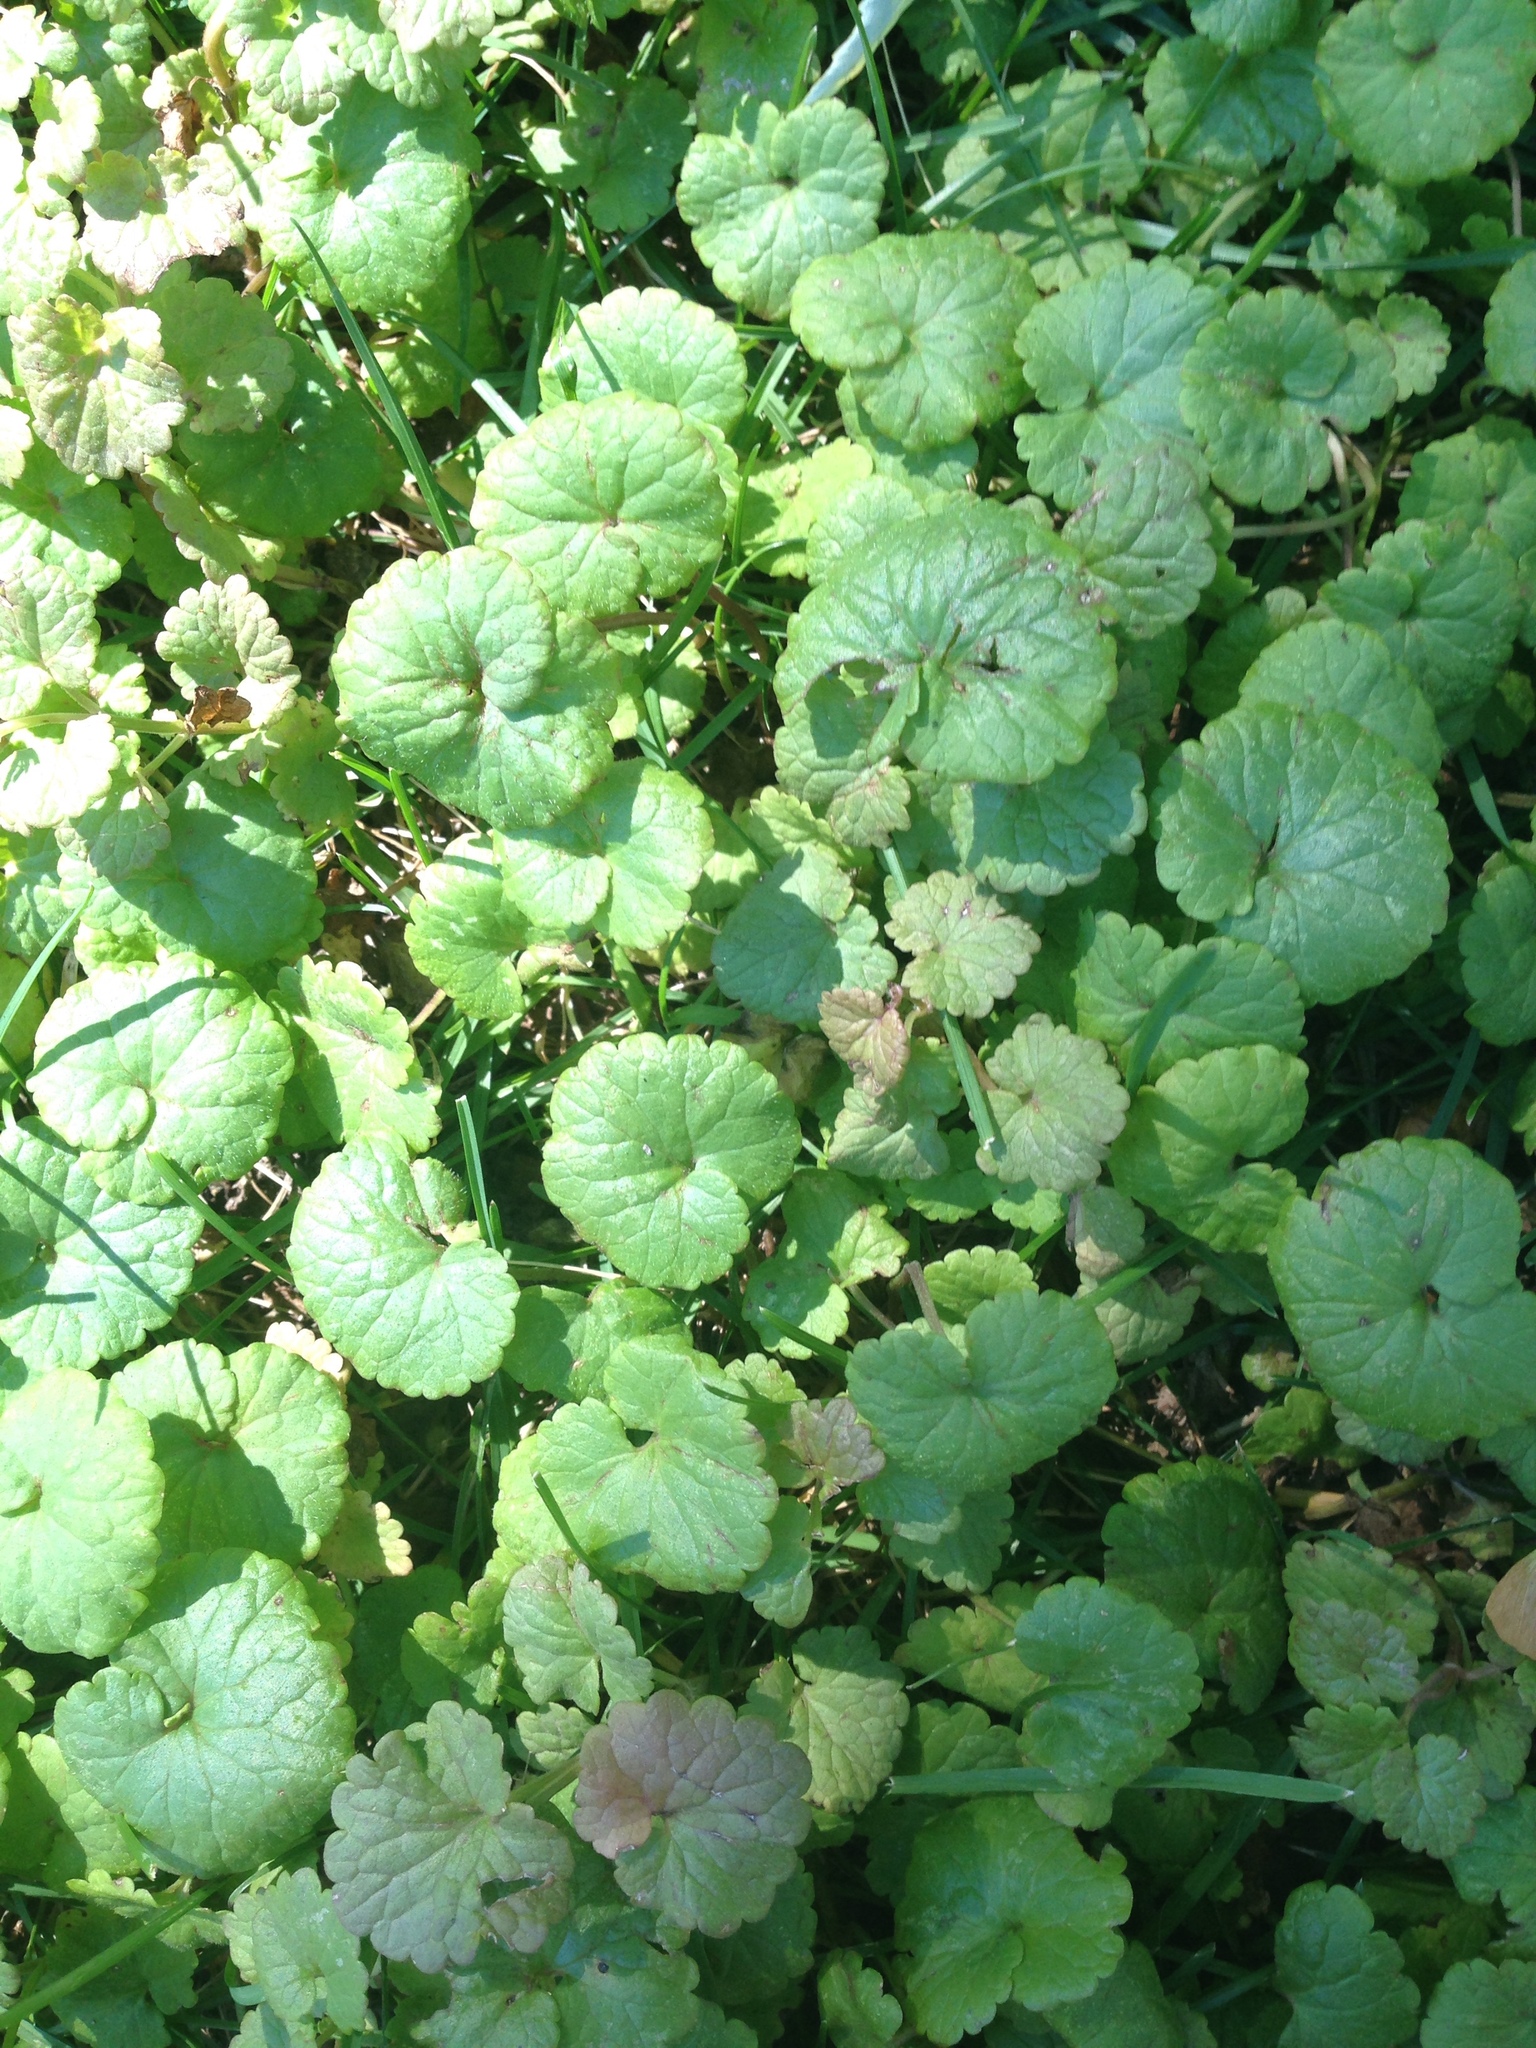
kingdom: Plantae
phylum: Tracheophyta
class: Magnoliopsida
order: Lamiales
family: Lamiaceae
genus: Glechoma
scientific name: Glechoma hederacea
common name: Ground ivy
